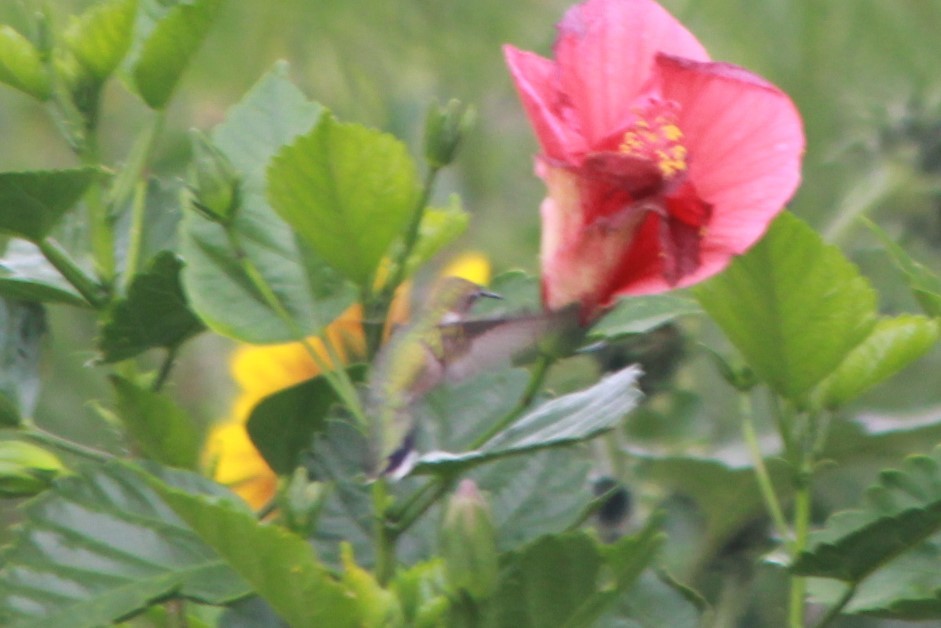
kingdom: Animalia
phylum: Chordata
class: Aves
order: Apodiformes
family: Trochilidae
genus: Archilochus
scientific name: Archilochus colubris
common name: Ruby-throated hummingbird
